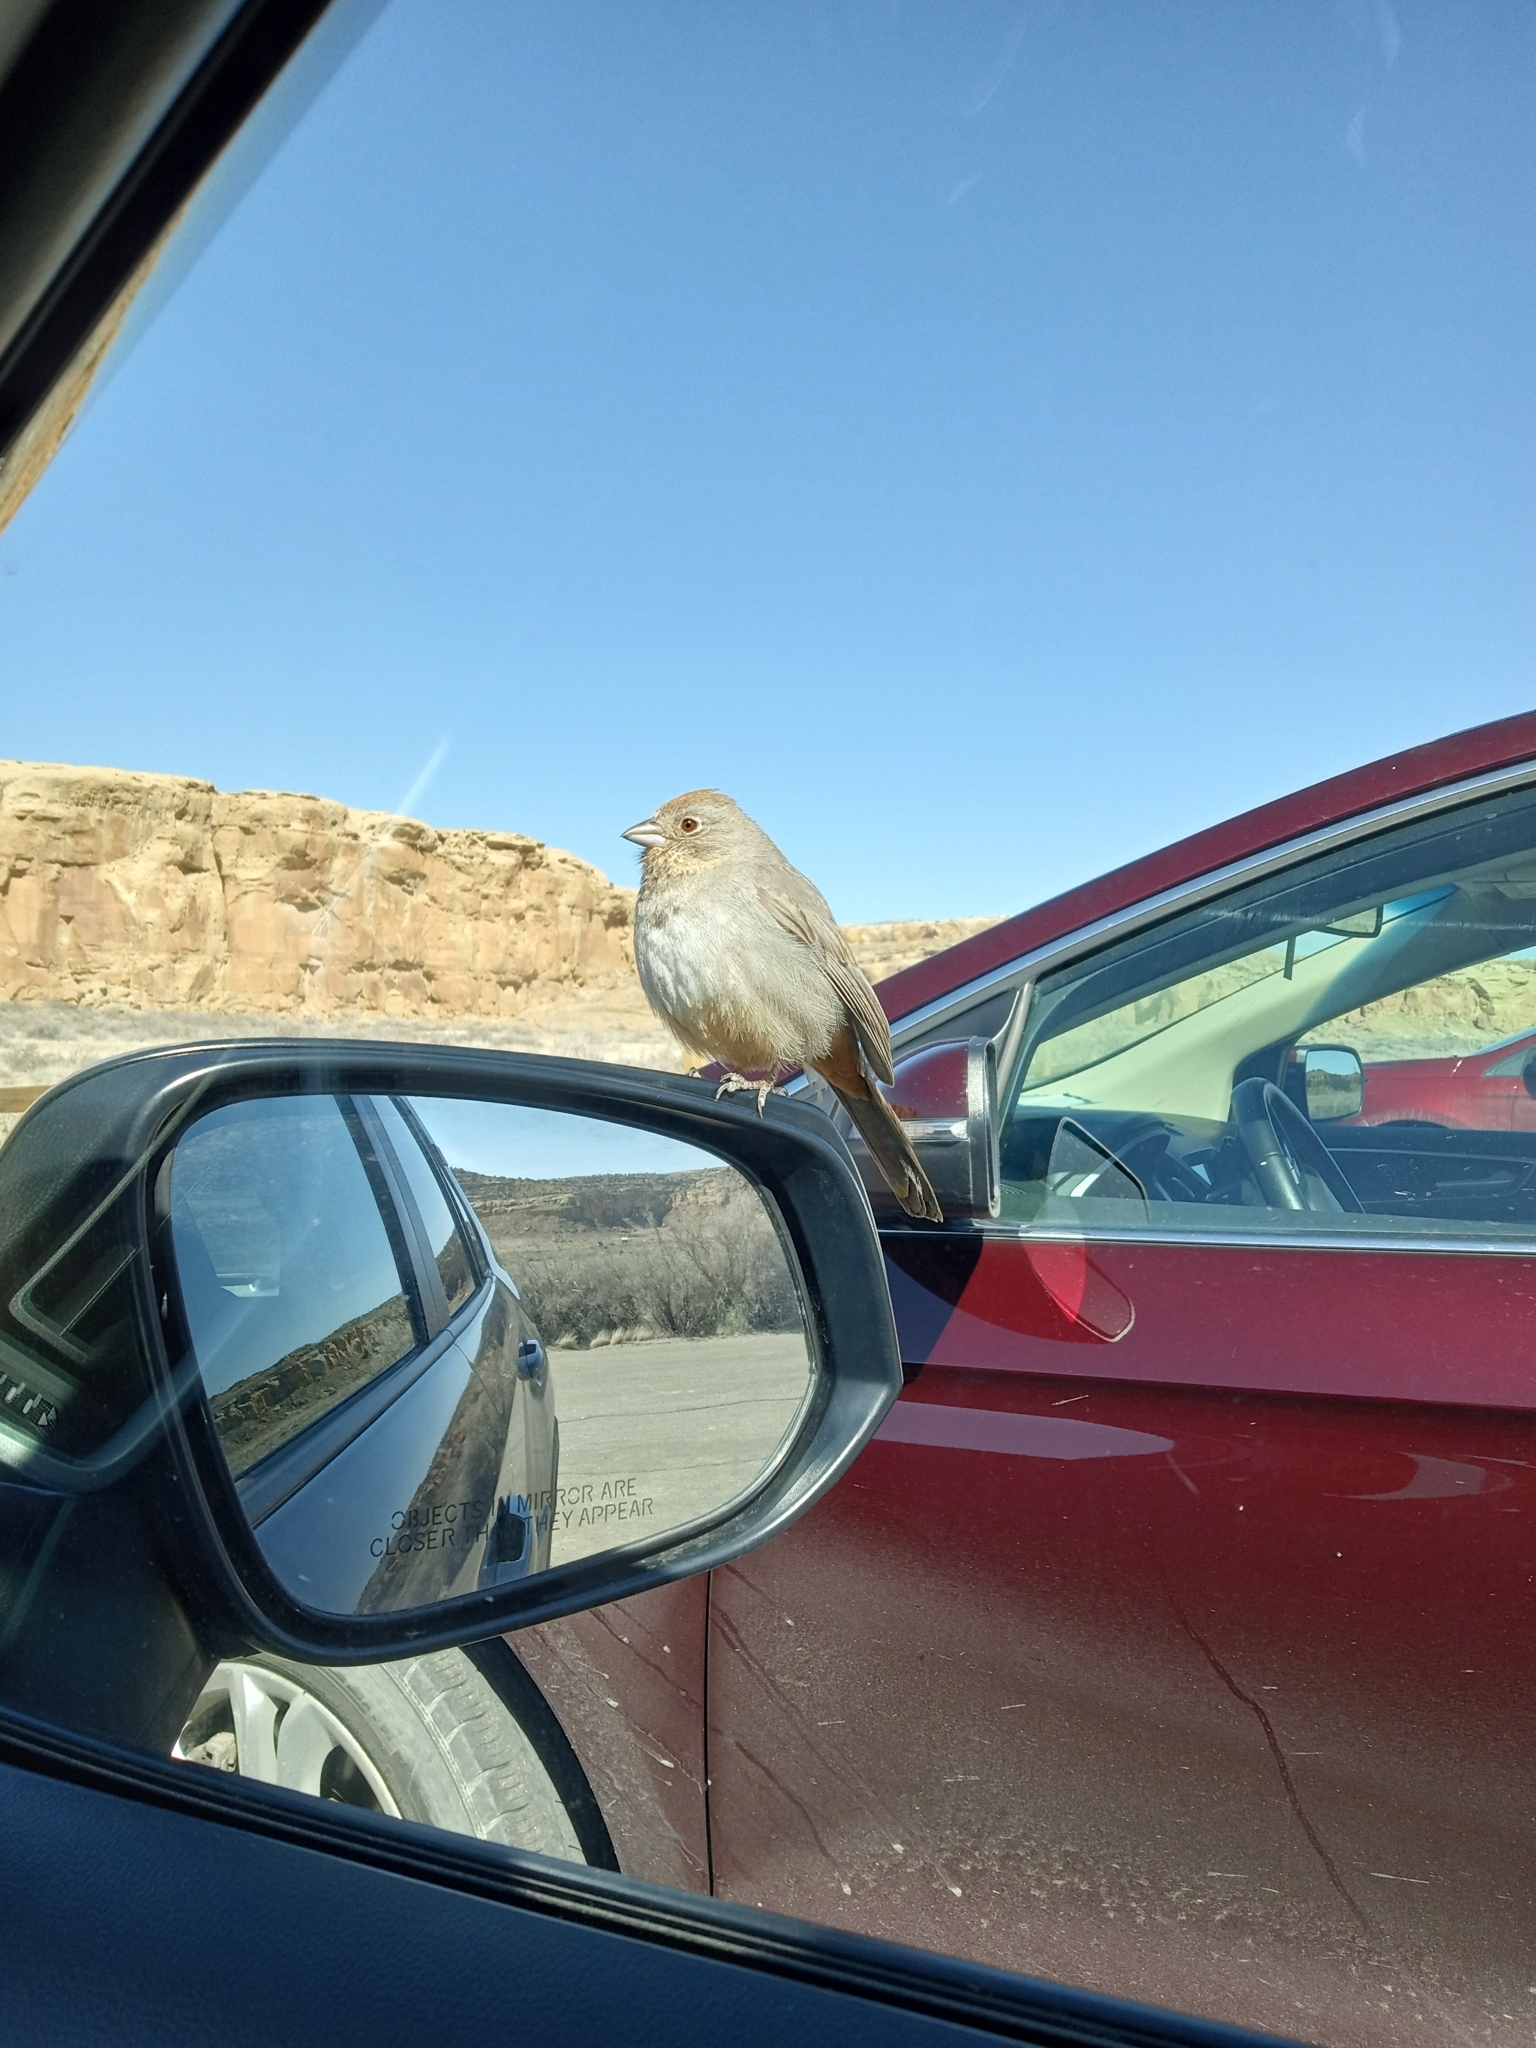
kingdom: Animalia
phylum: Chordata
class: Aves
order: Passeriformes
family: Passerellidae
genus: Melozone
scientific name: Melozone fusca
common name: Canyon towhee
